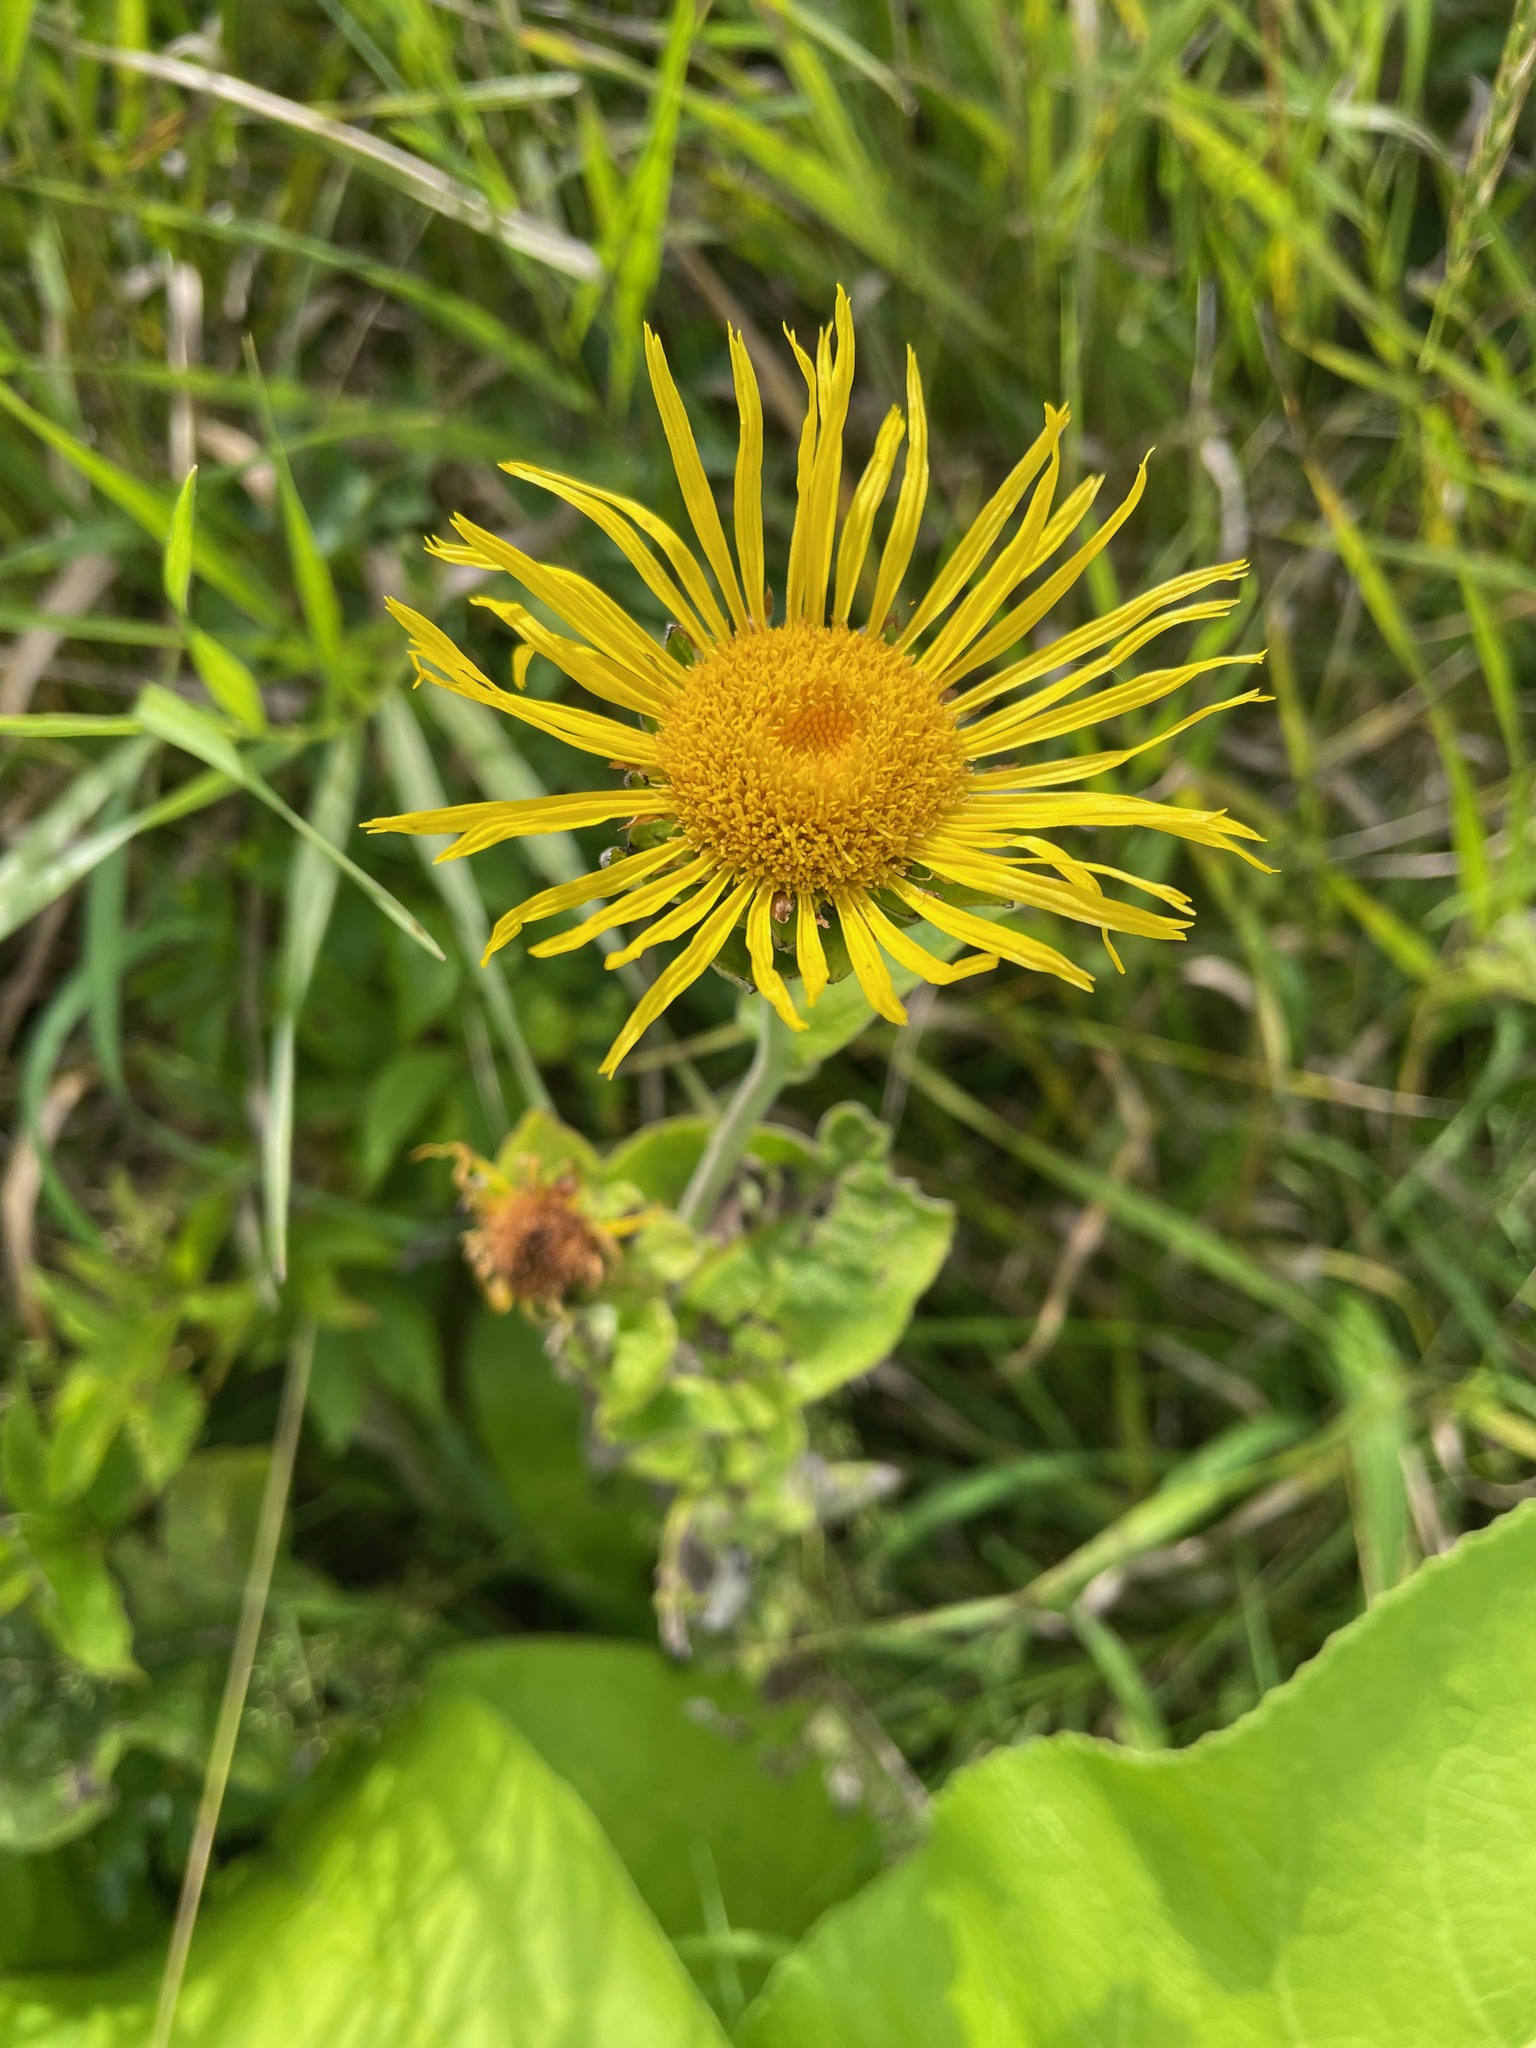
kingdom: Plantae
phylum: Tracheophyta
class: Magnoliopsida
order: Asterales
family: Asteraceae
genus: Inula
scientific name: Inula helenium
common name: Elecampane
